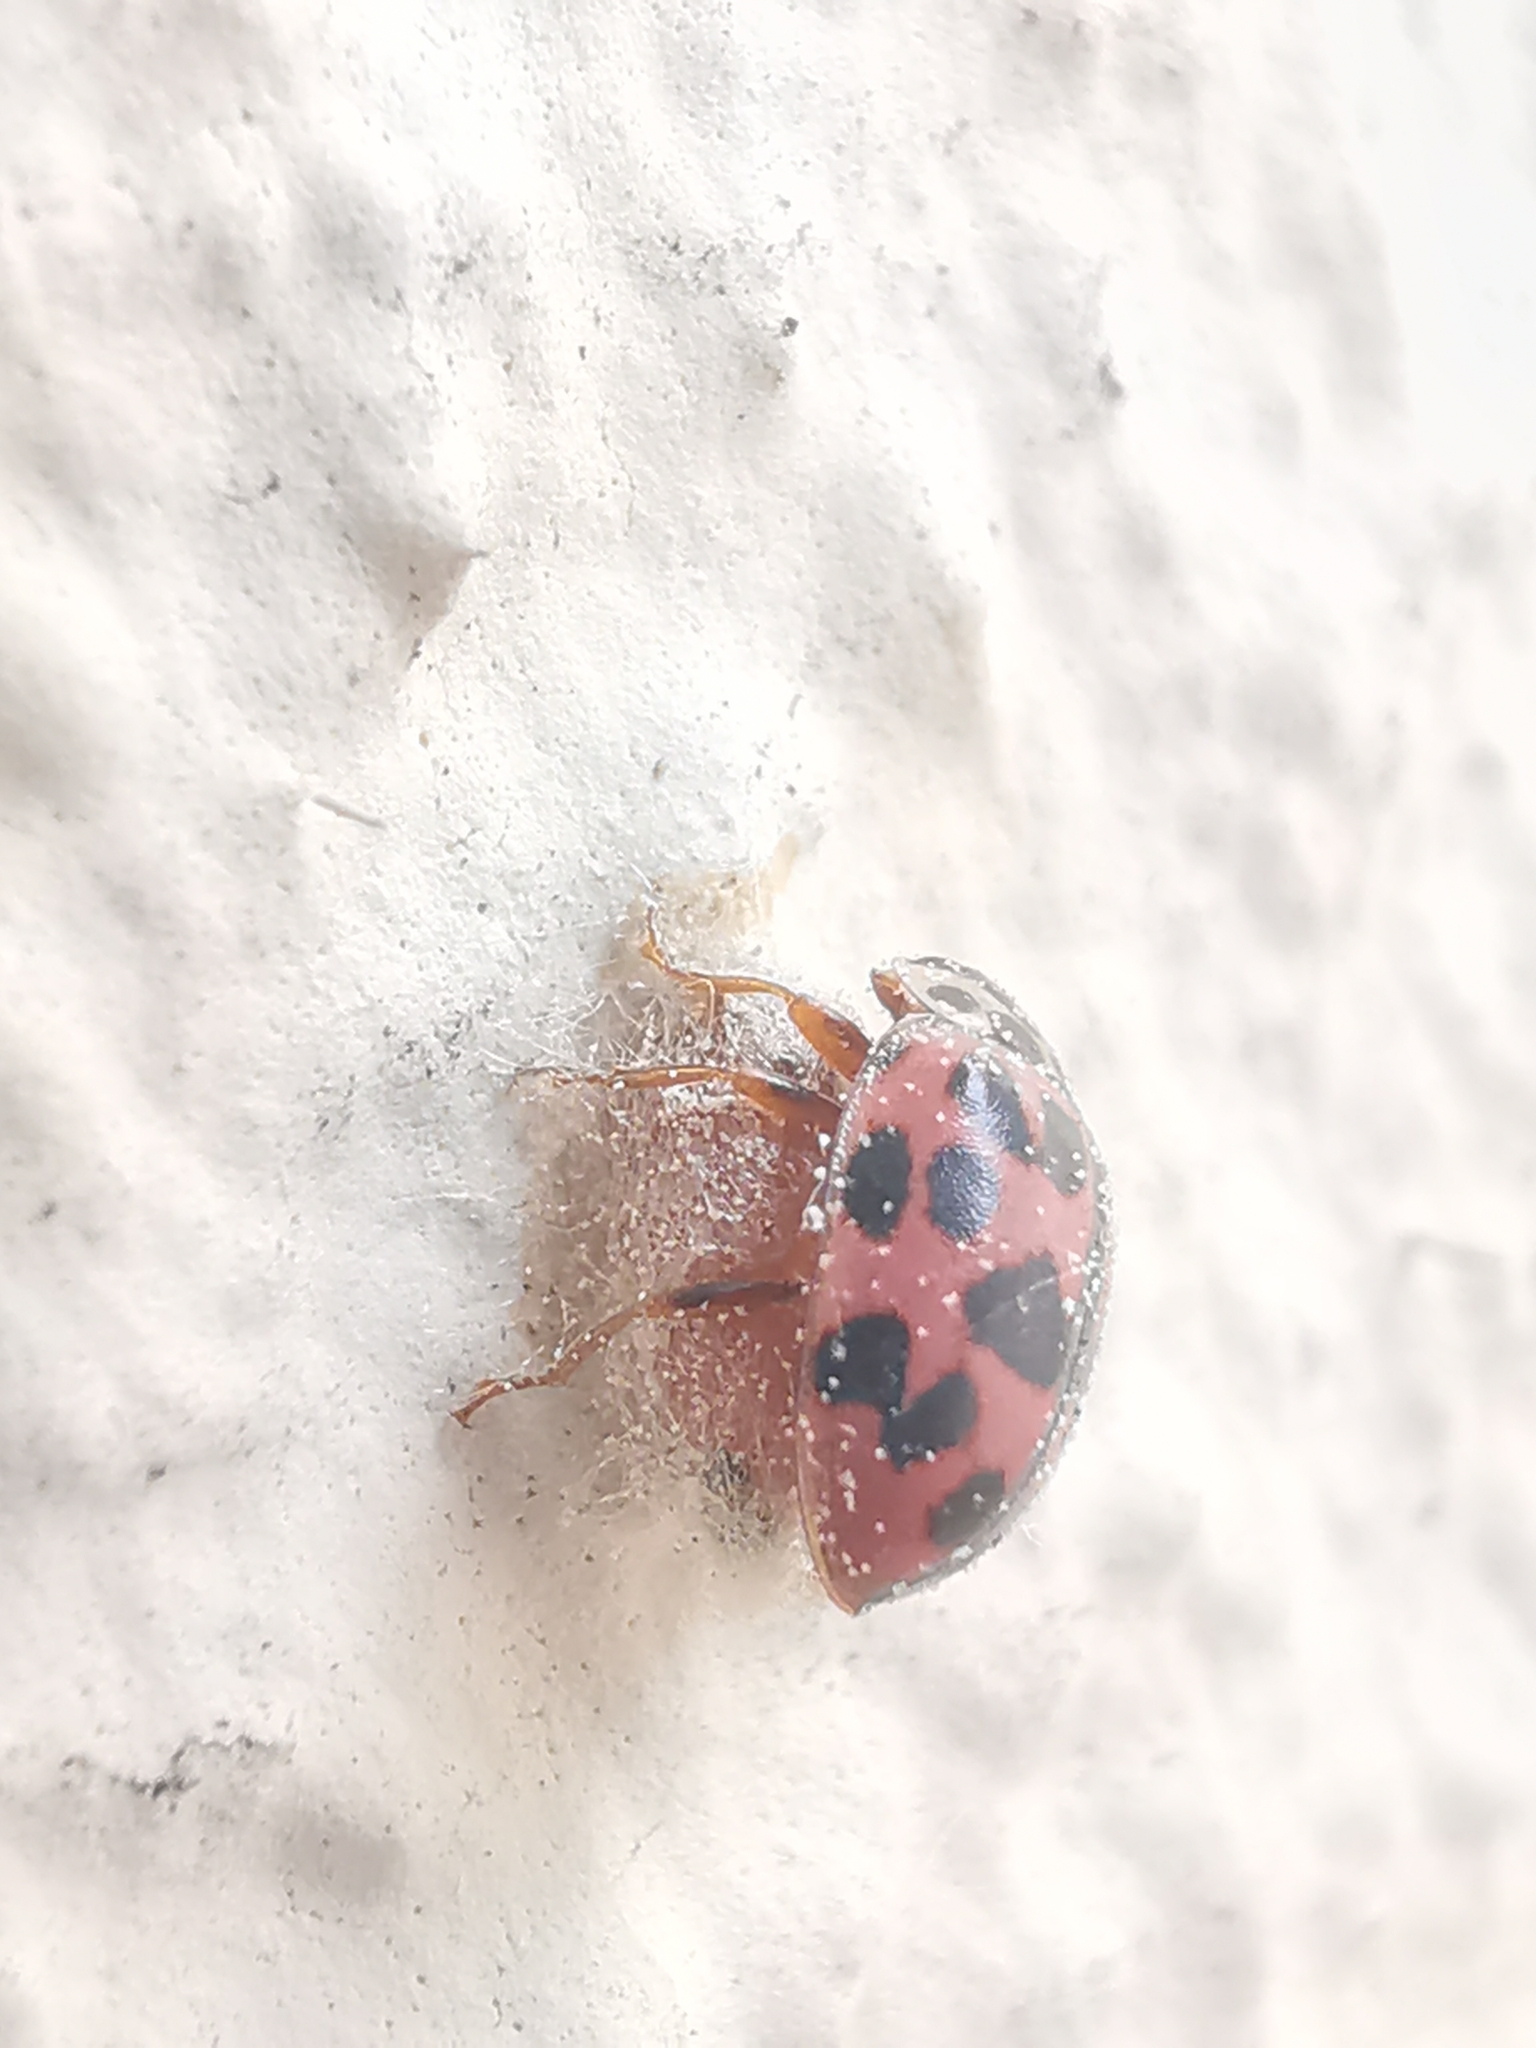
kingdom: Animalia
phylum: Arthropoda
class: Insecta
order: Coleoptera
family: Coccinellidae
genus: Oenopia
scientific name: Oenopia conglobata
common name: Ladybird beetle
